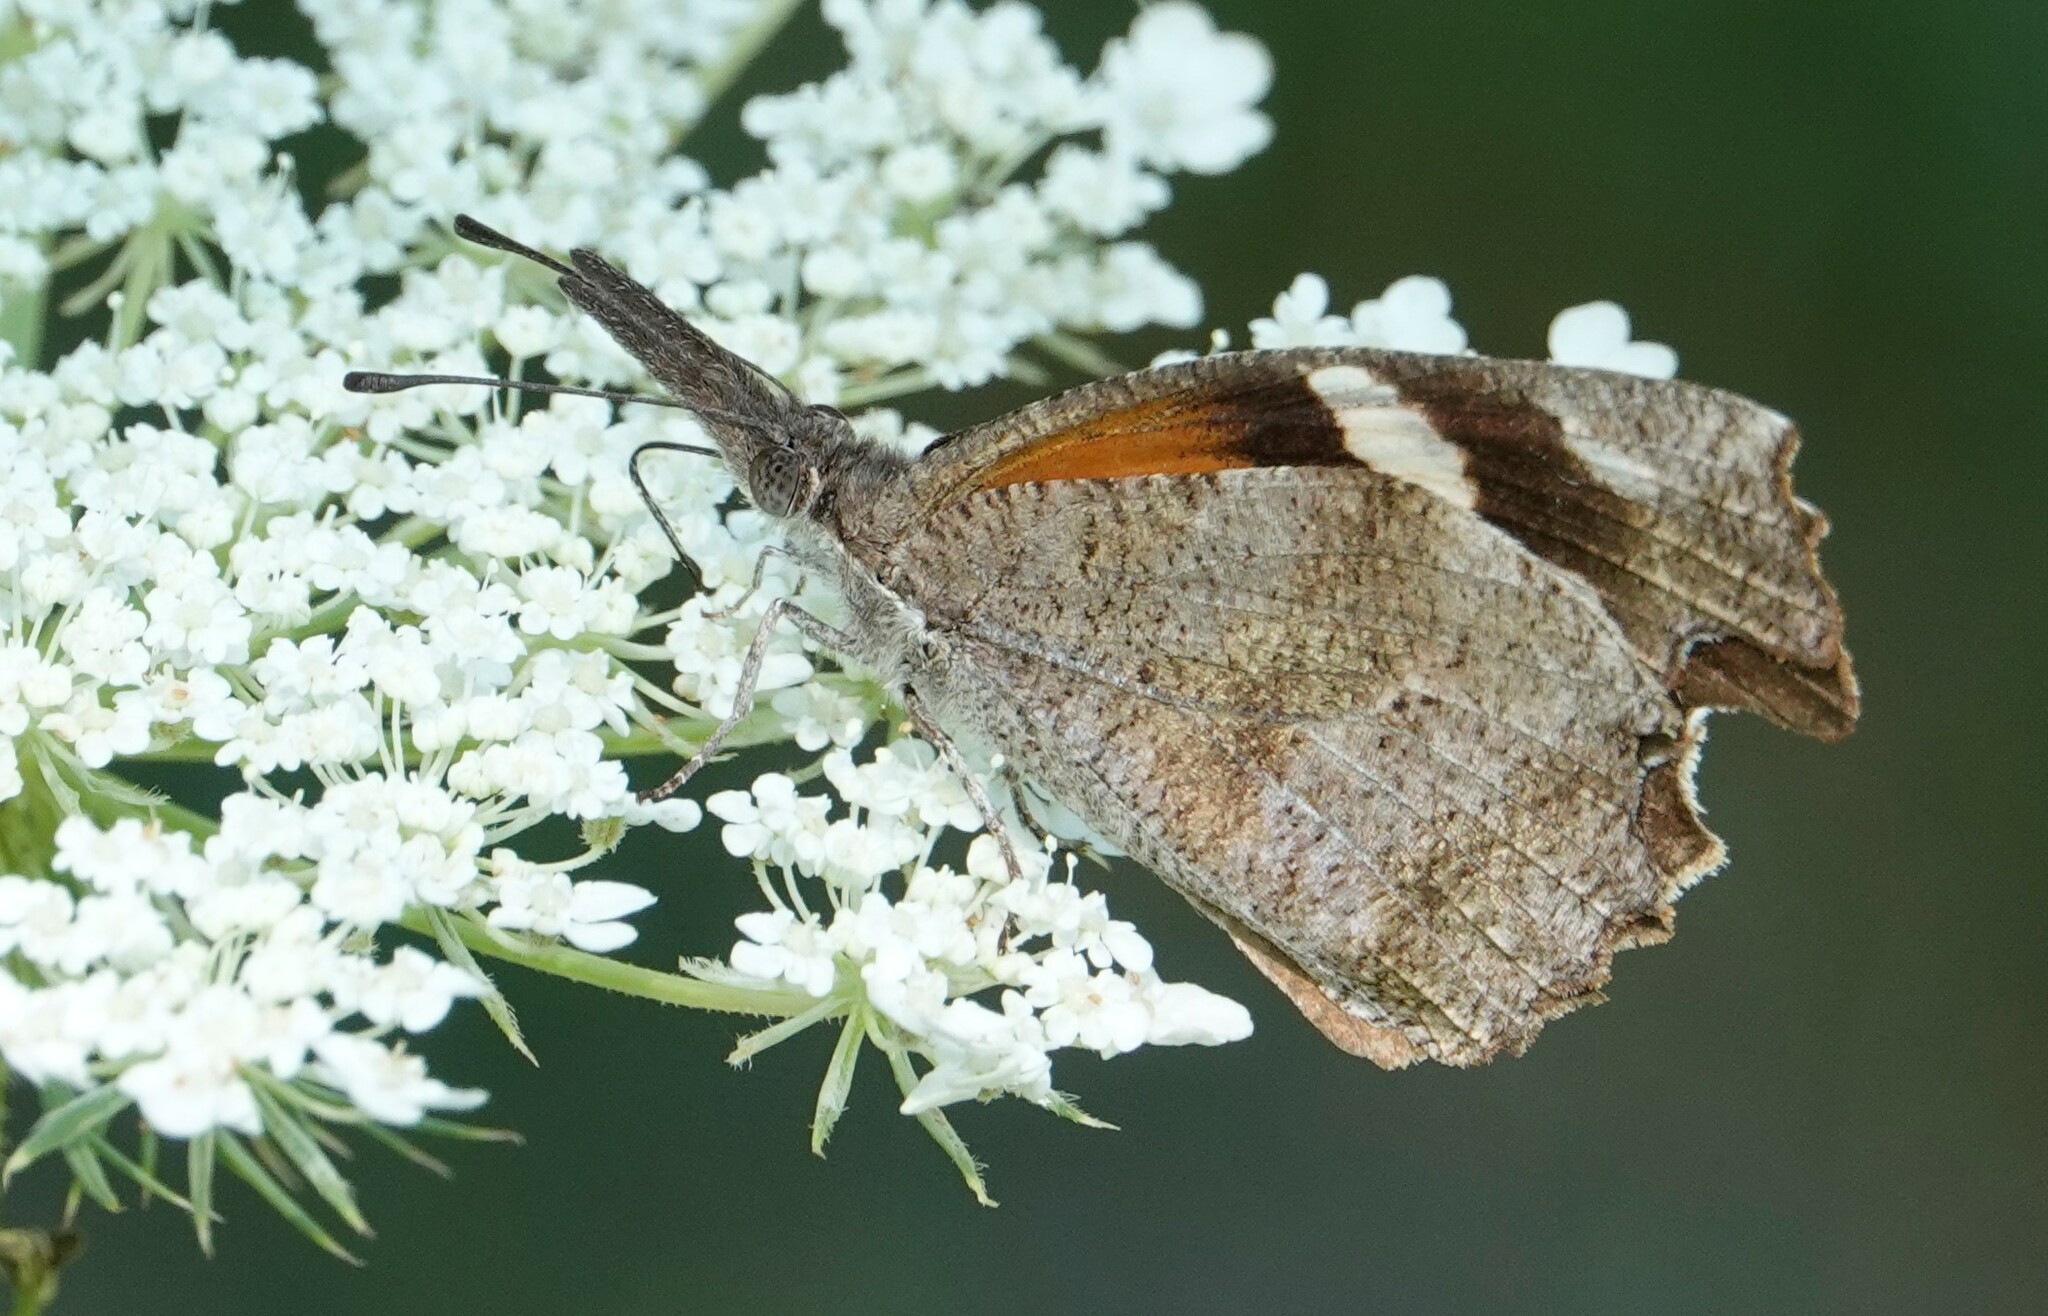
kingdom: Animalia
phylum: Arthropoda
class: Insecta
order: Lepidoptera
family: Nymphalidae
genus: Libytheana
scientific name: Libytheana carinenta
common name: American snout
